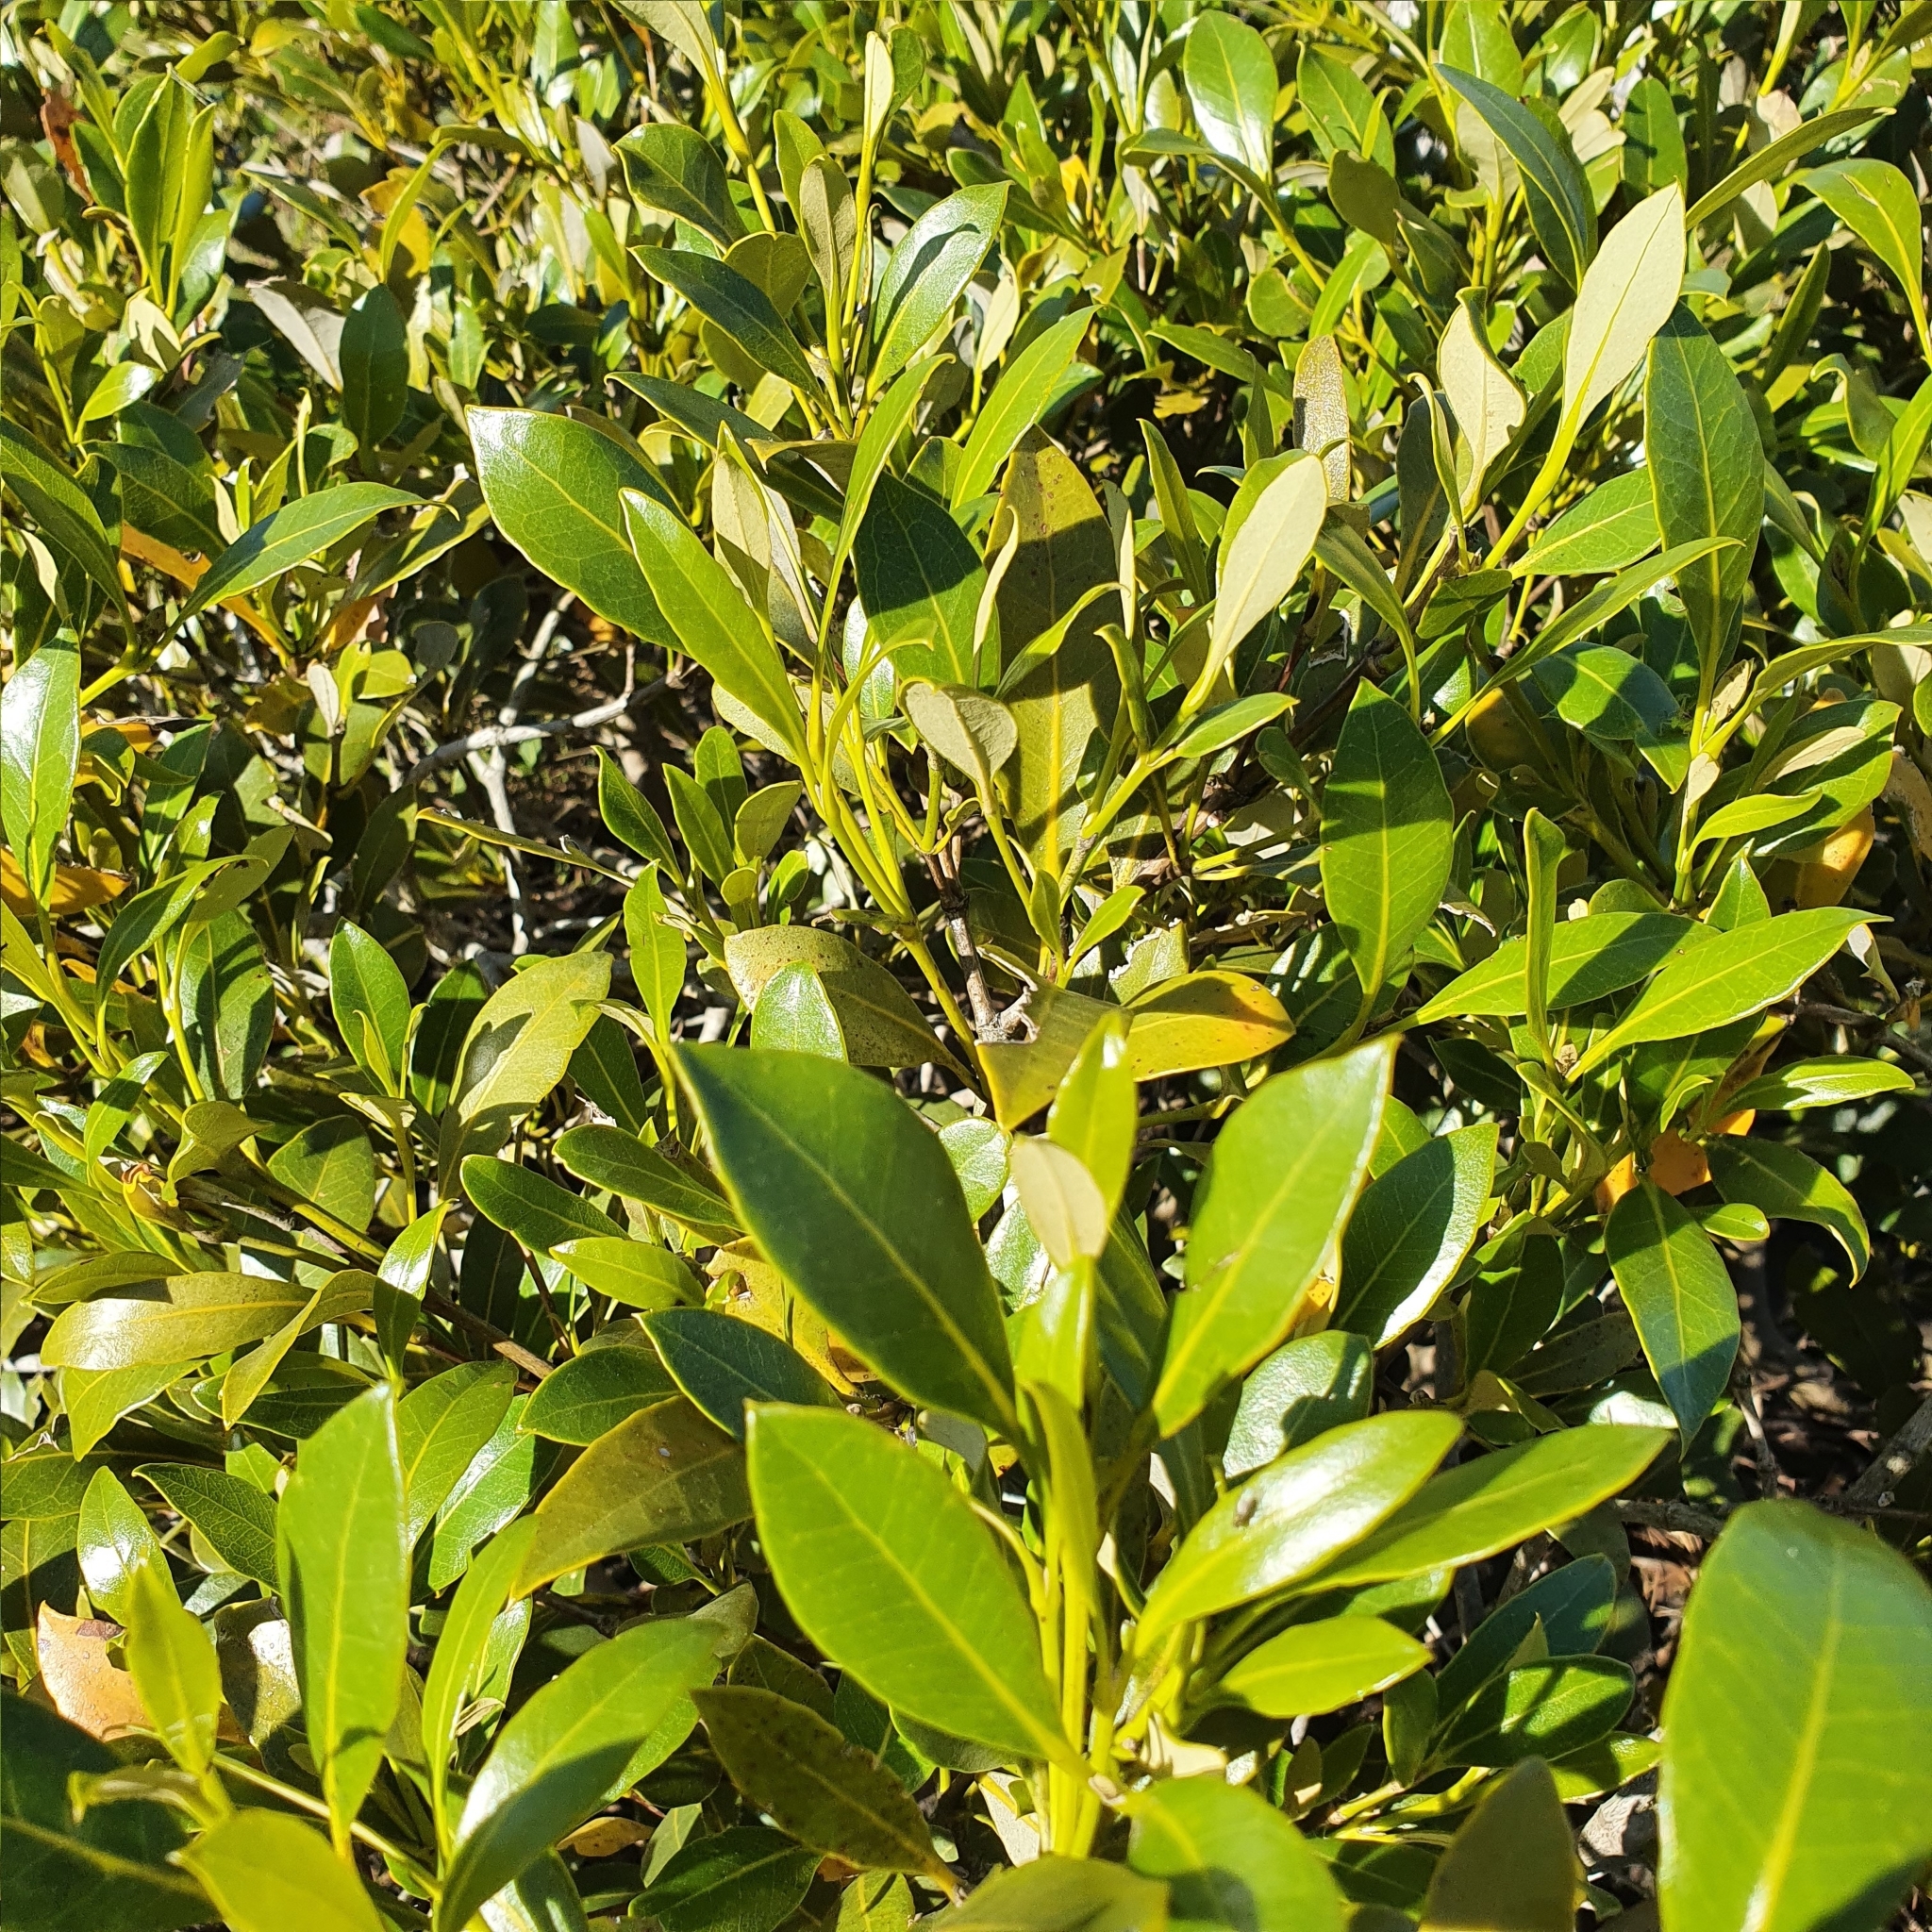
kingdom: Plantae
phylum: Tracheophyta
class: Magnoliopsida
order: Lamiales
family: Acanthaceae
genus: Avicennia
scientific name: Avicennia marina
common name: Gray mangrove
